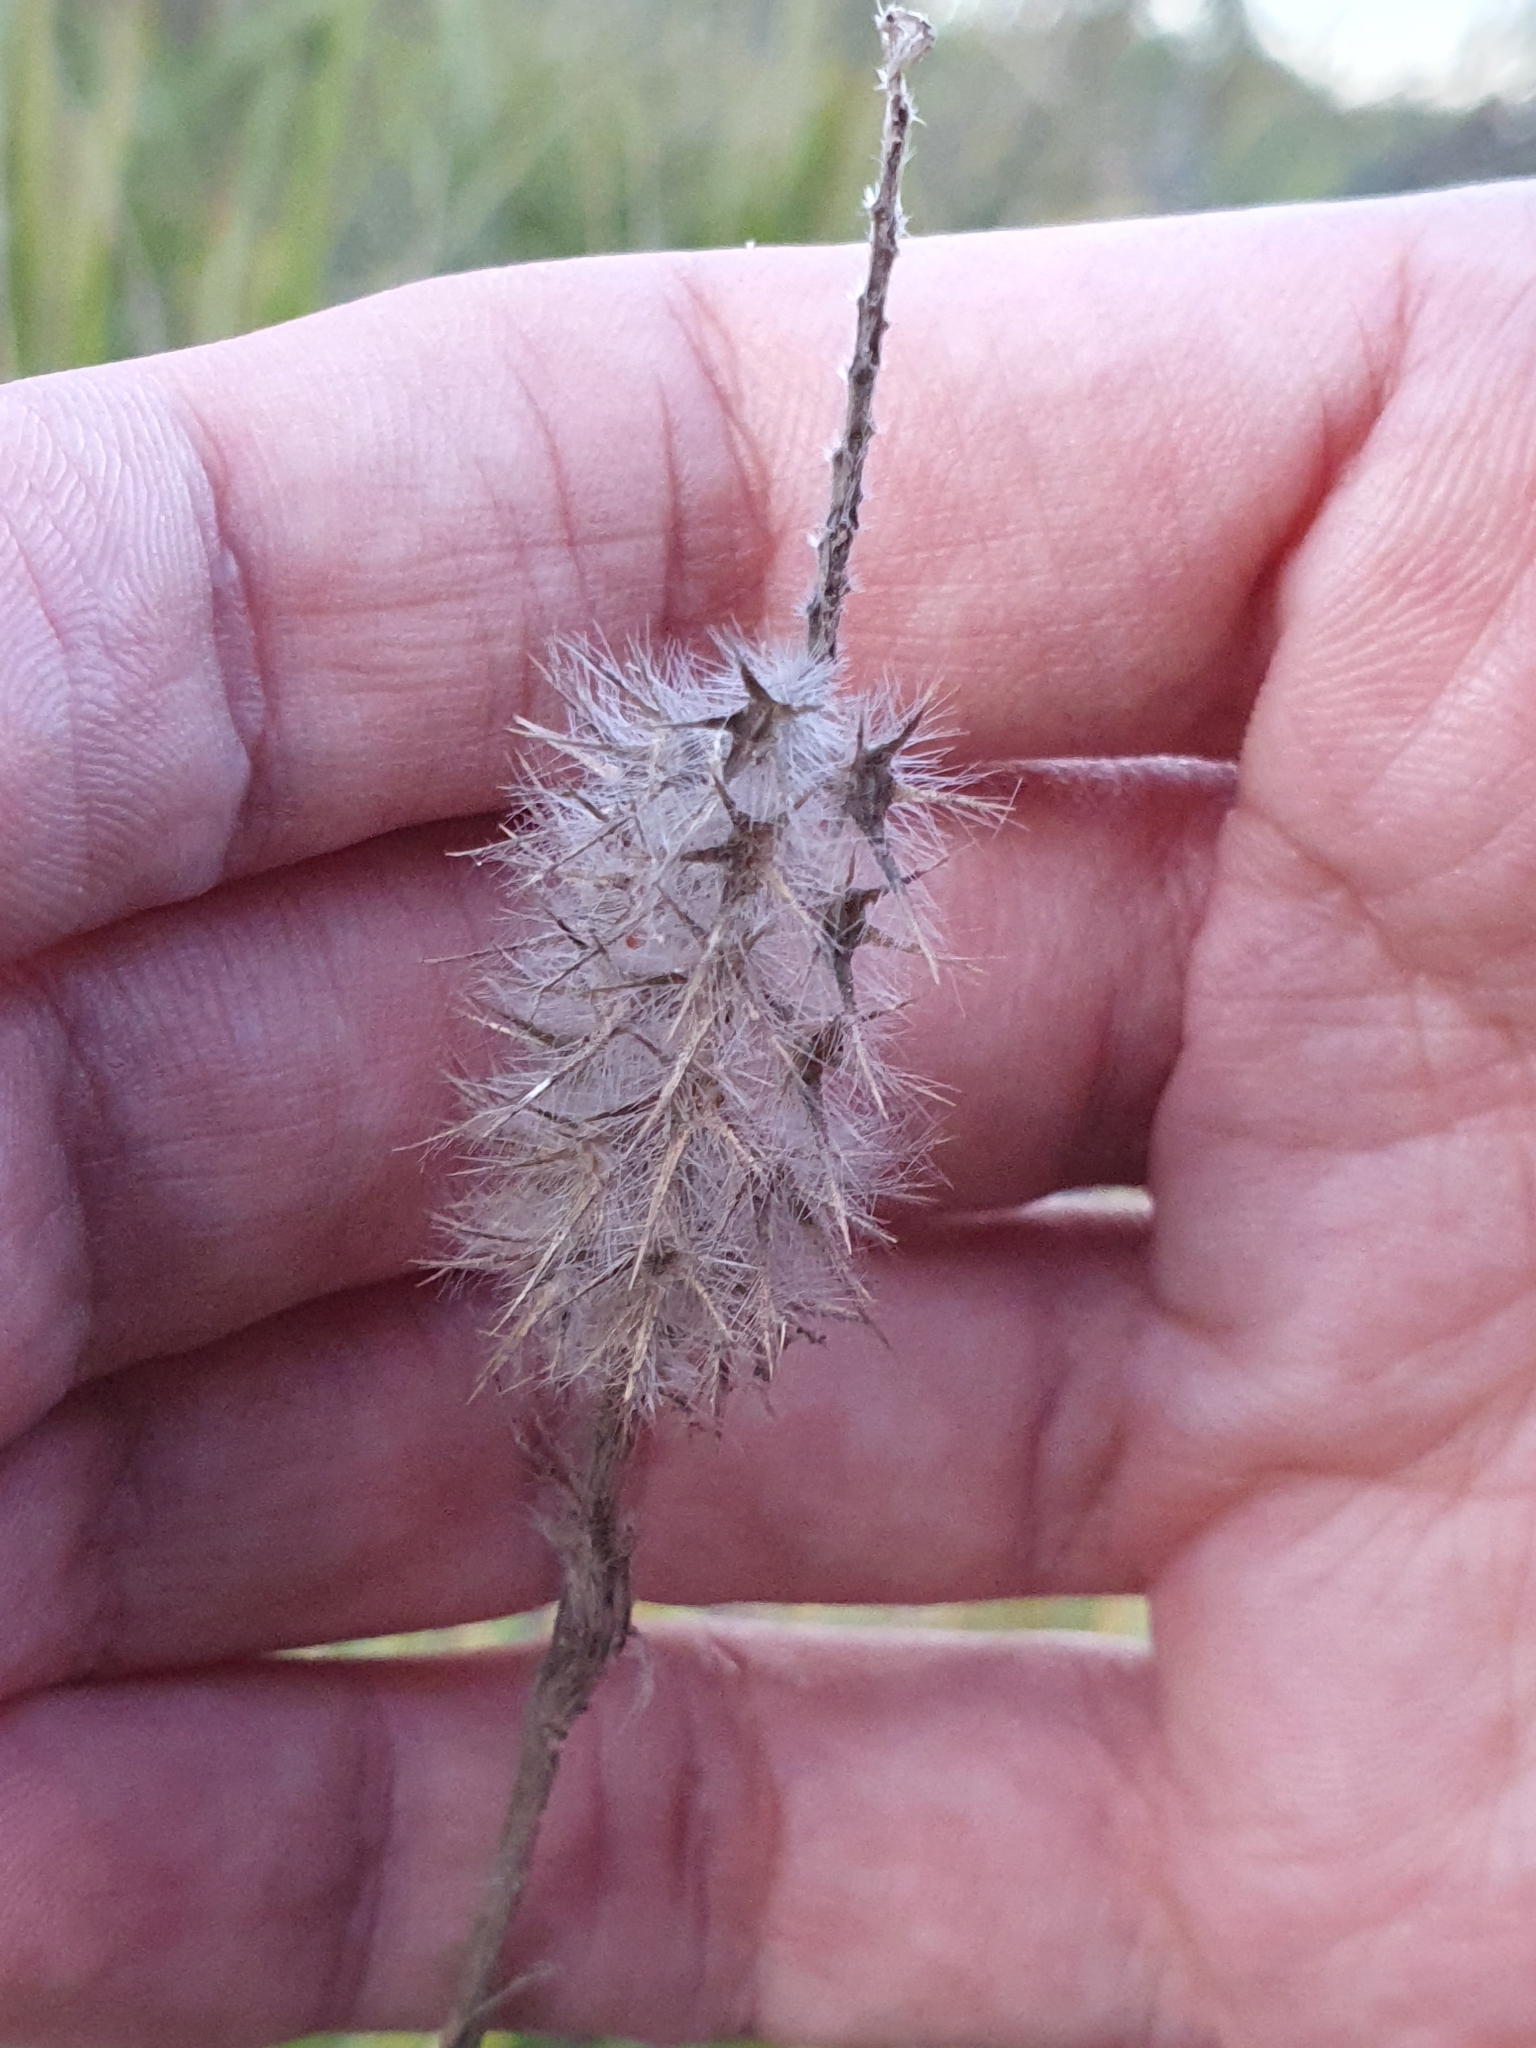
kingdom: Plantae
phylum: Tracheophyta
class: Magnoliopsida
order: Fabales
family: Fabaceae
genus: Trifolium
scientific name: Trifolium angustifolium
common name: Narrow clover
